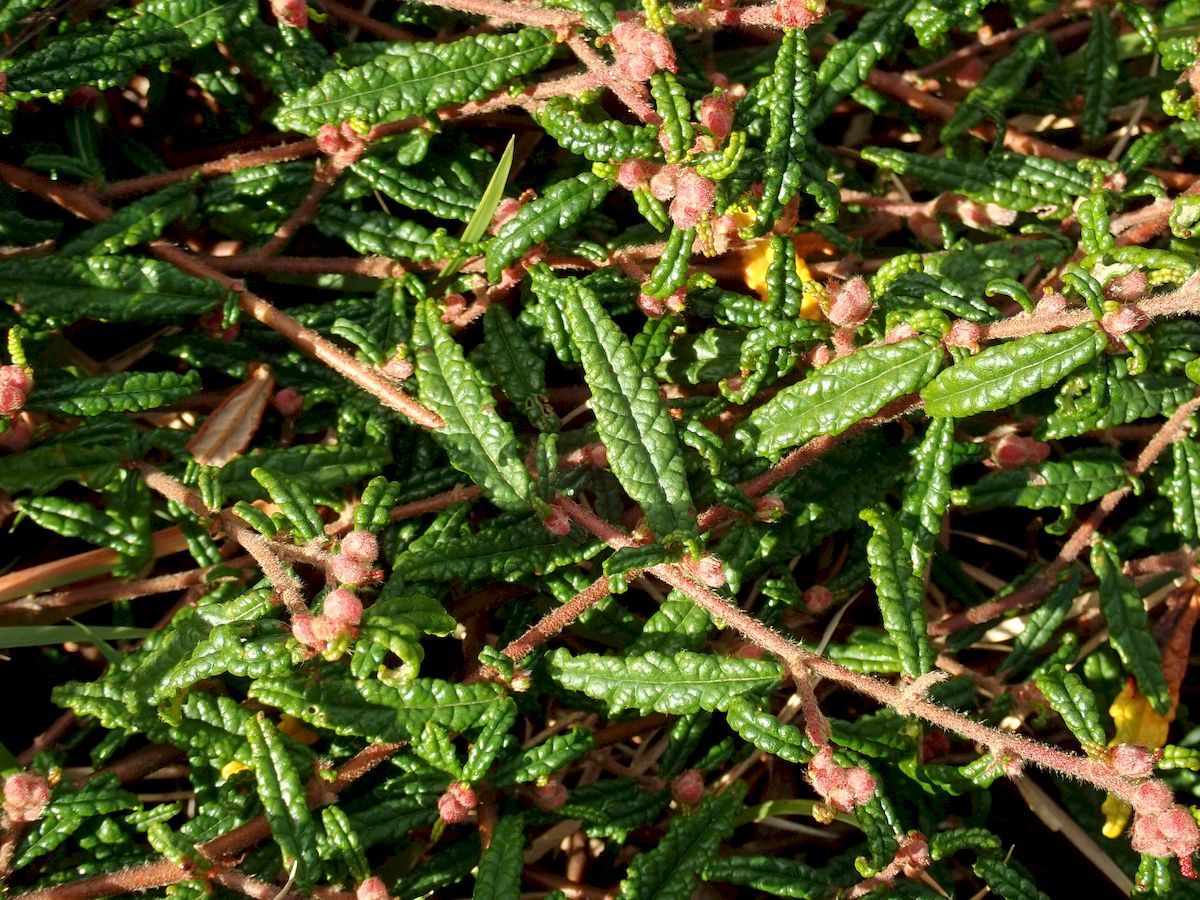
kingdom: Plantae
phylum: Tracheophyta
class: Magnoliopsida
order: Malvales
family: Malvaceae
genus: Commersonia
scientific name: Commersonia hermanniifolia
